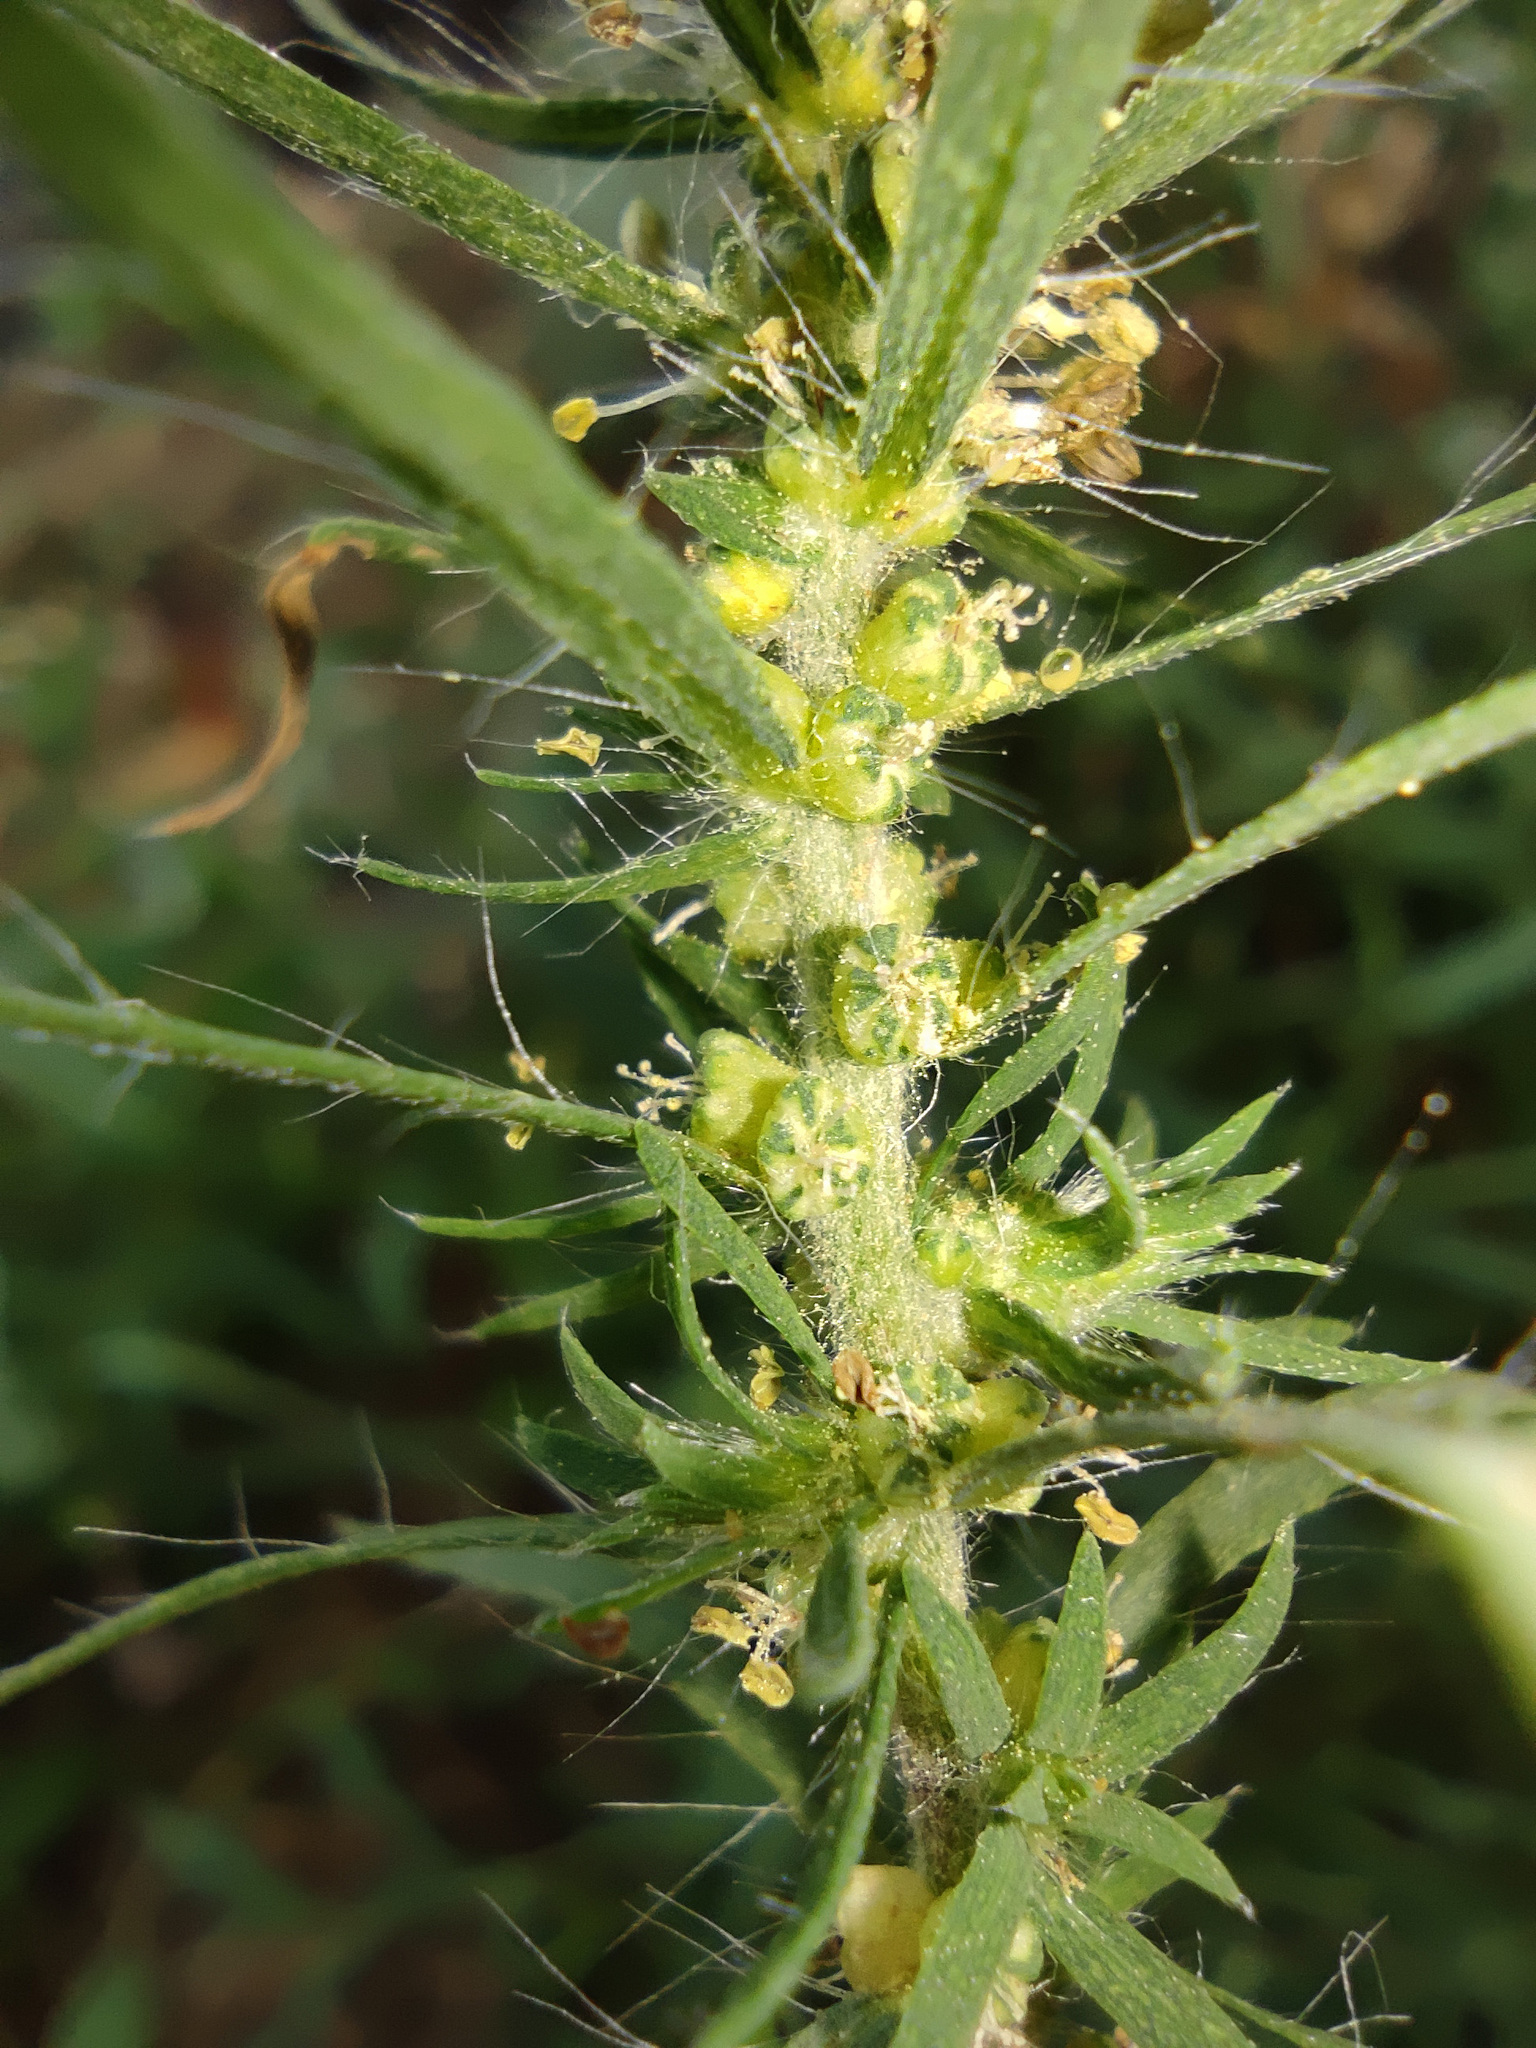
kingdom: Plantae
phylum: Tracheophyta
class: Magnoliopsida
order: Caryophyllales
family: Amaranthaceae
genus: Bassia
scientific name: Bassia scoparia
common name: Belvedere
